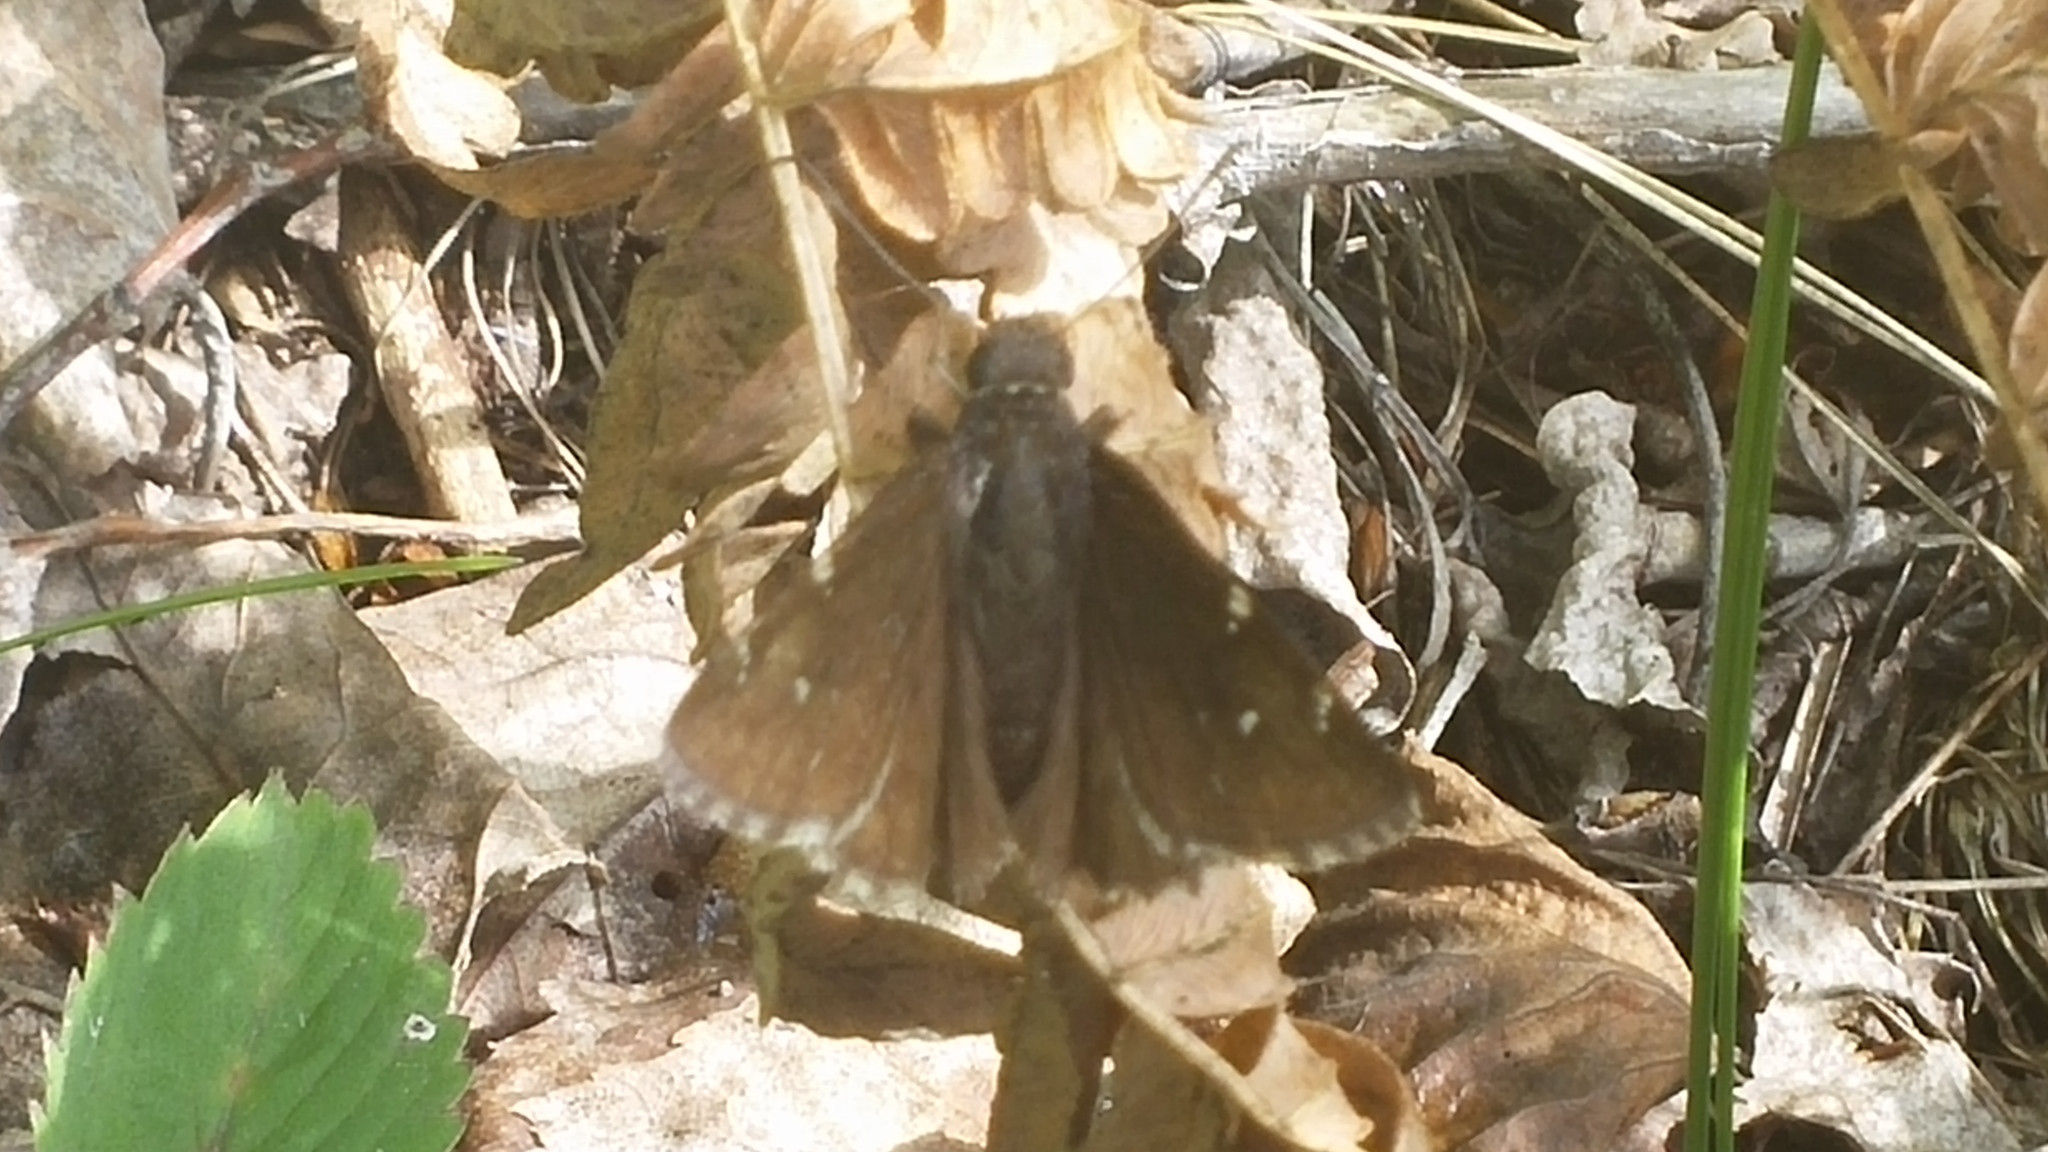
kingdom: Animalia
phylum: Arthropoda
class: Insecta
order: Lepidoptera
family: Hesperiidae
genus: Thorybes
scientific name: Thorybes pylades
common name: Northern cloudywing
